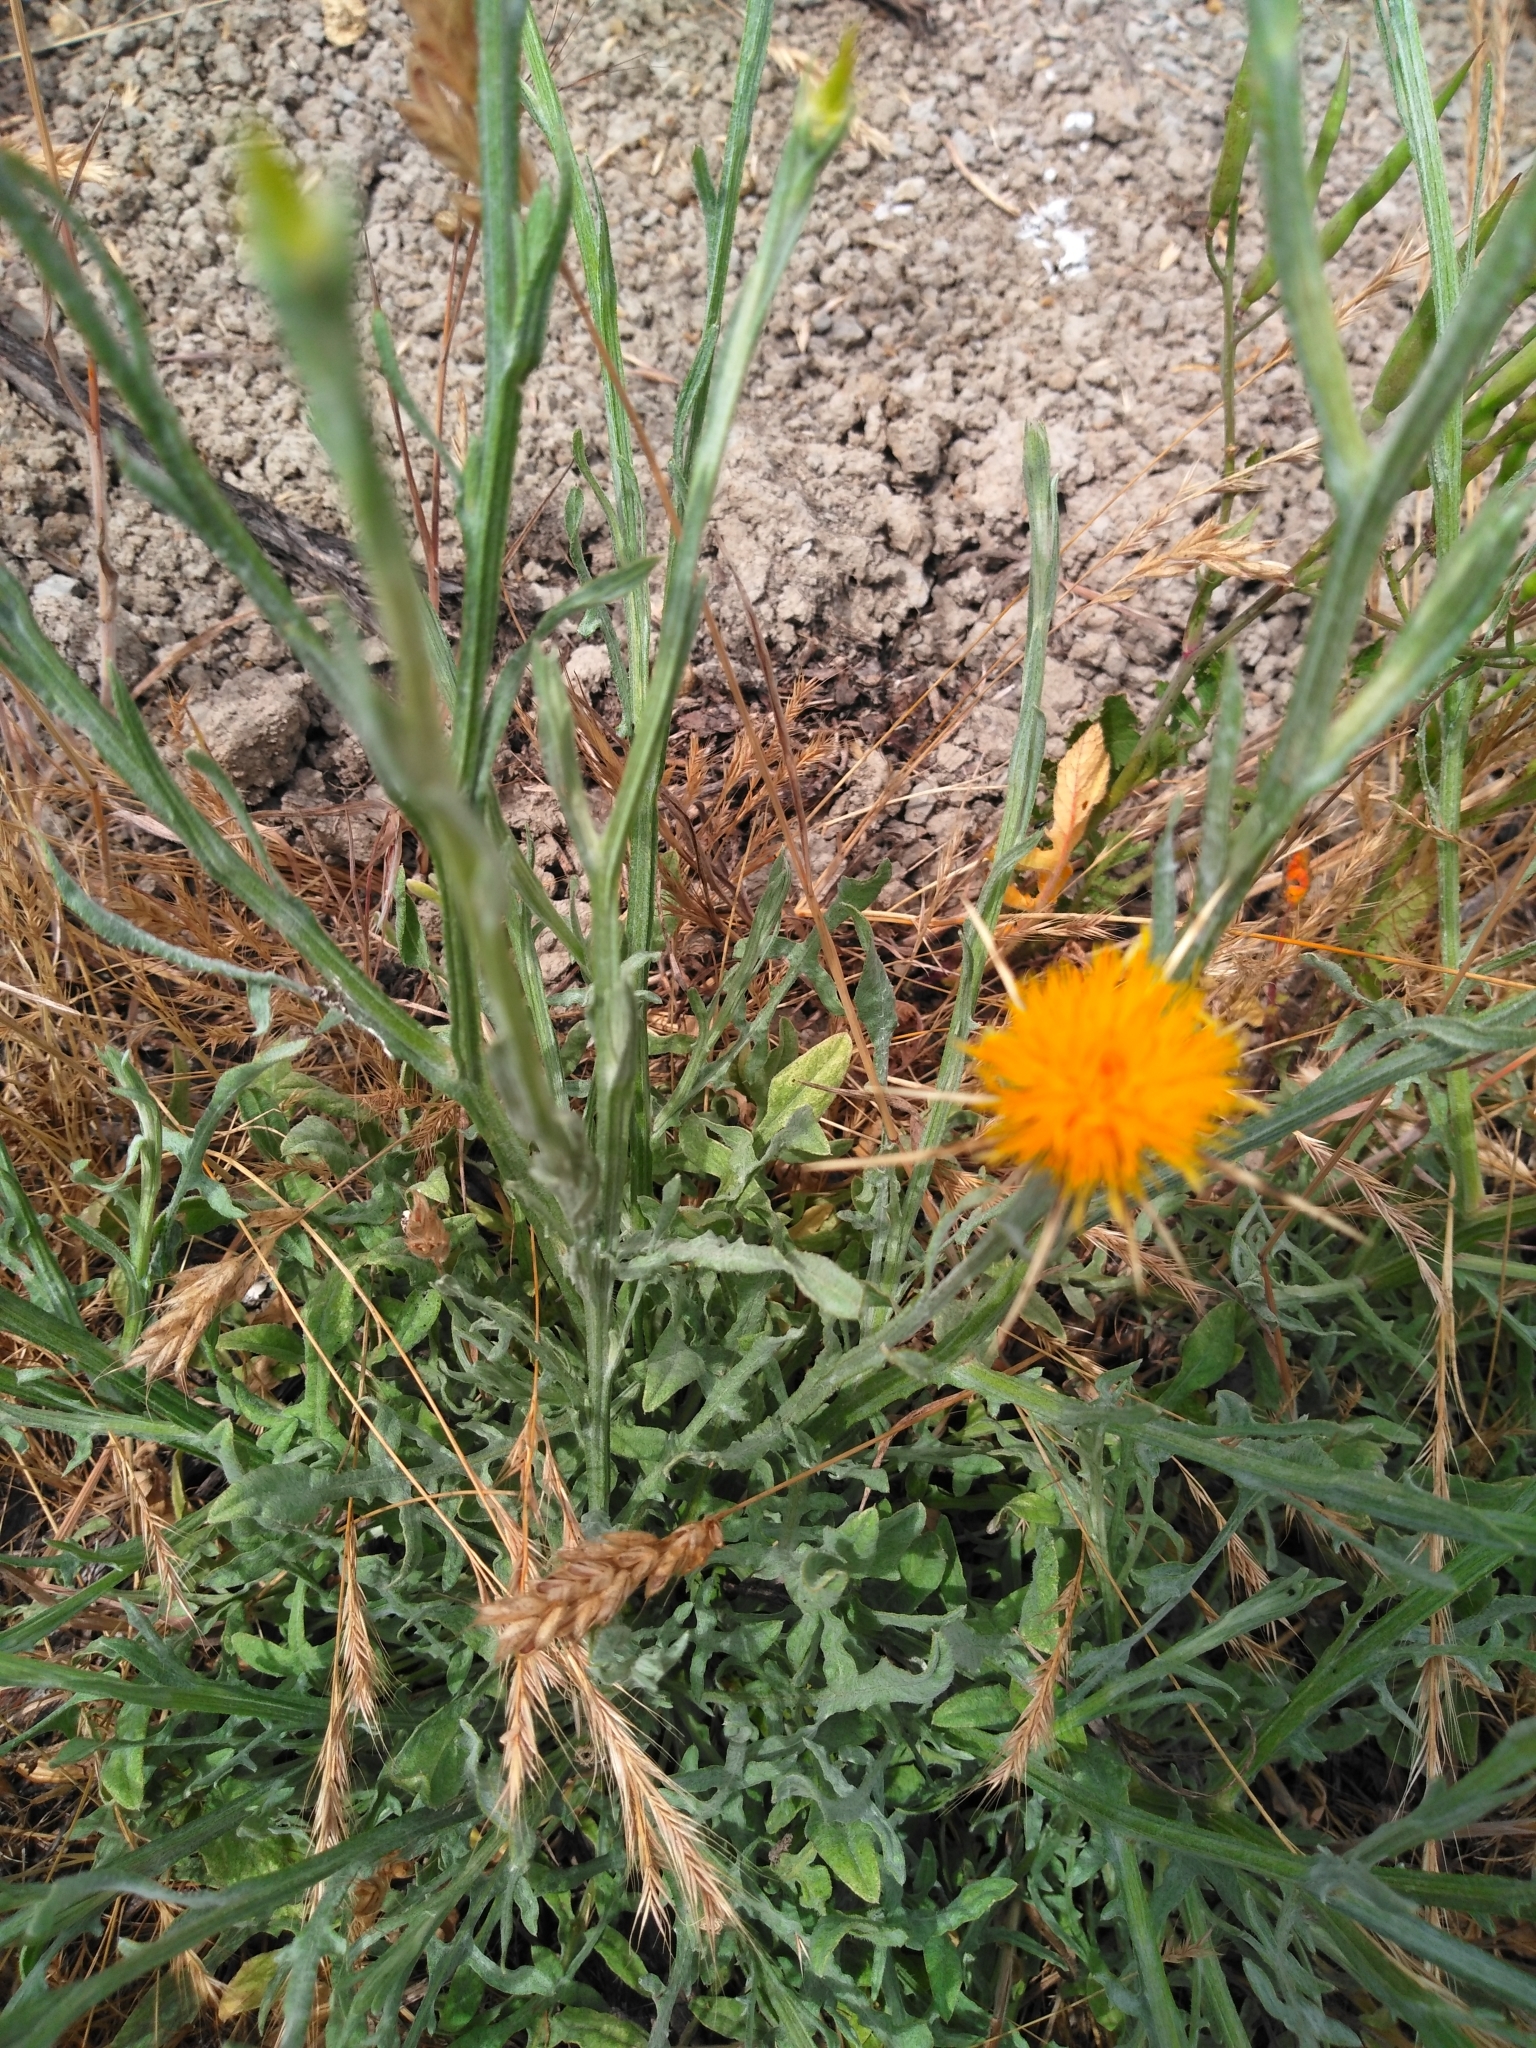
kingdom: Plantae
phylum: Tracheophyta
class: Magnoliopsida
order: Asterales
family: Asteraceae
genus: Centaurea
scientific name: Centaurea solstitialis
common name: Yellow star-thistle
